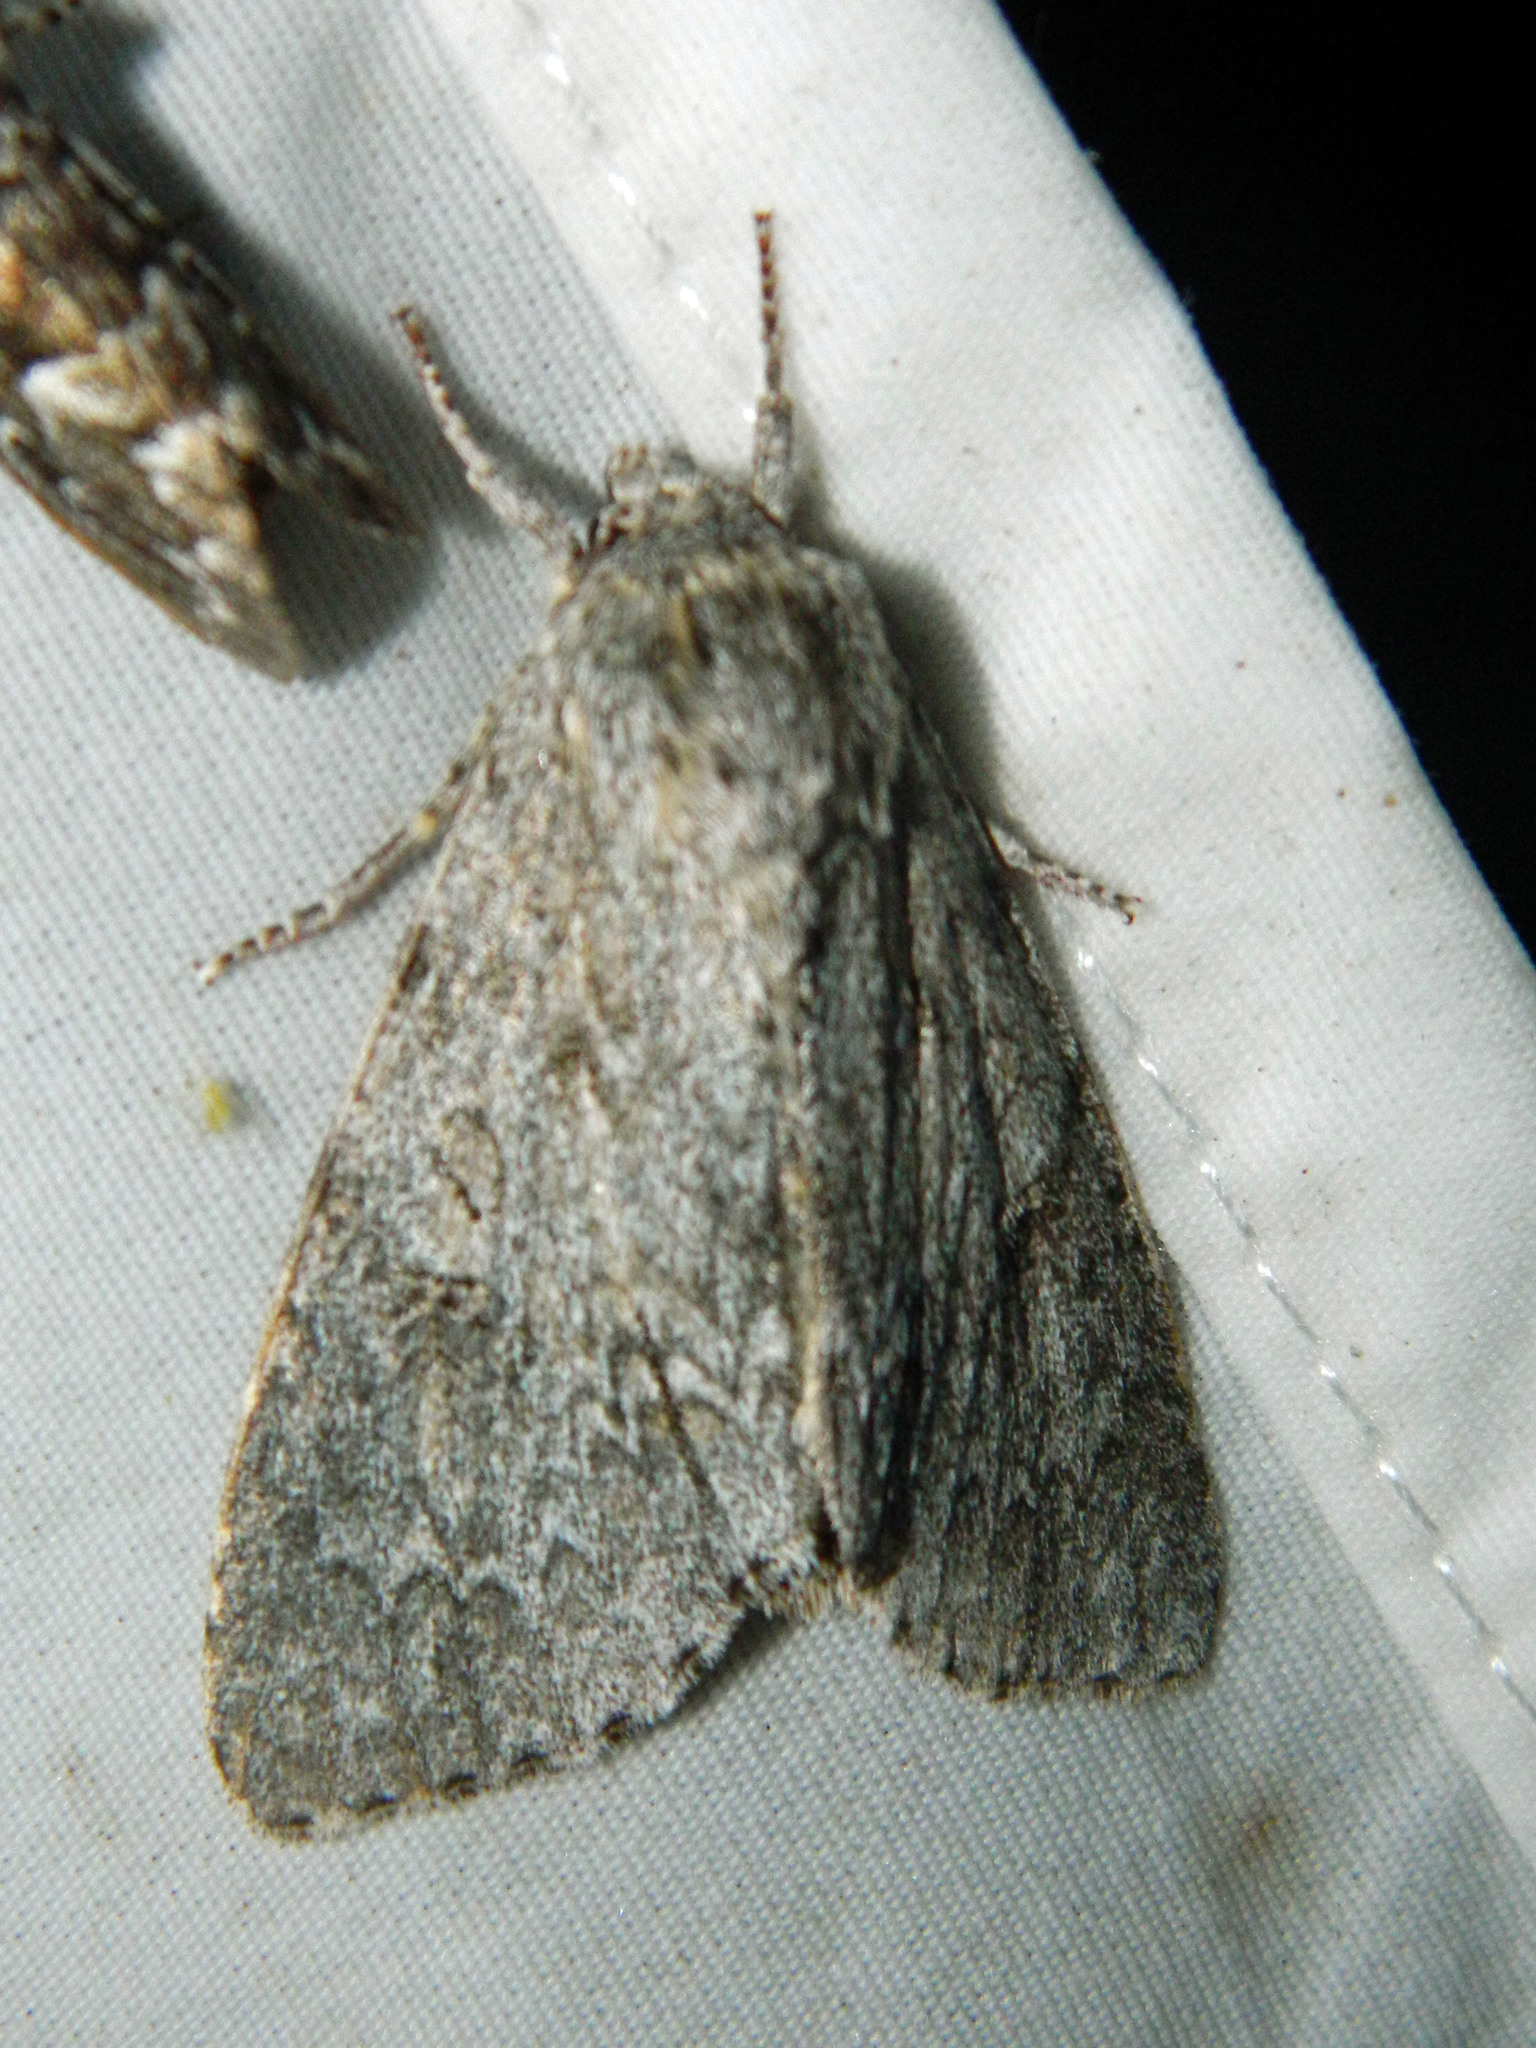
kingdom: Animalia
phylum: Arthropoda
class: Insecta
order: Lepidoptera
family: Noctuidae
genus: Acronicta
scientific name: Acronicta insita
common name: Large gray dagger
